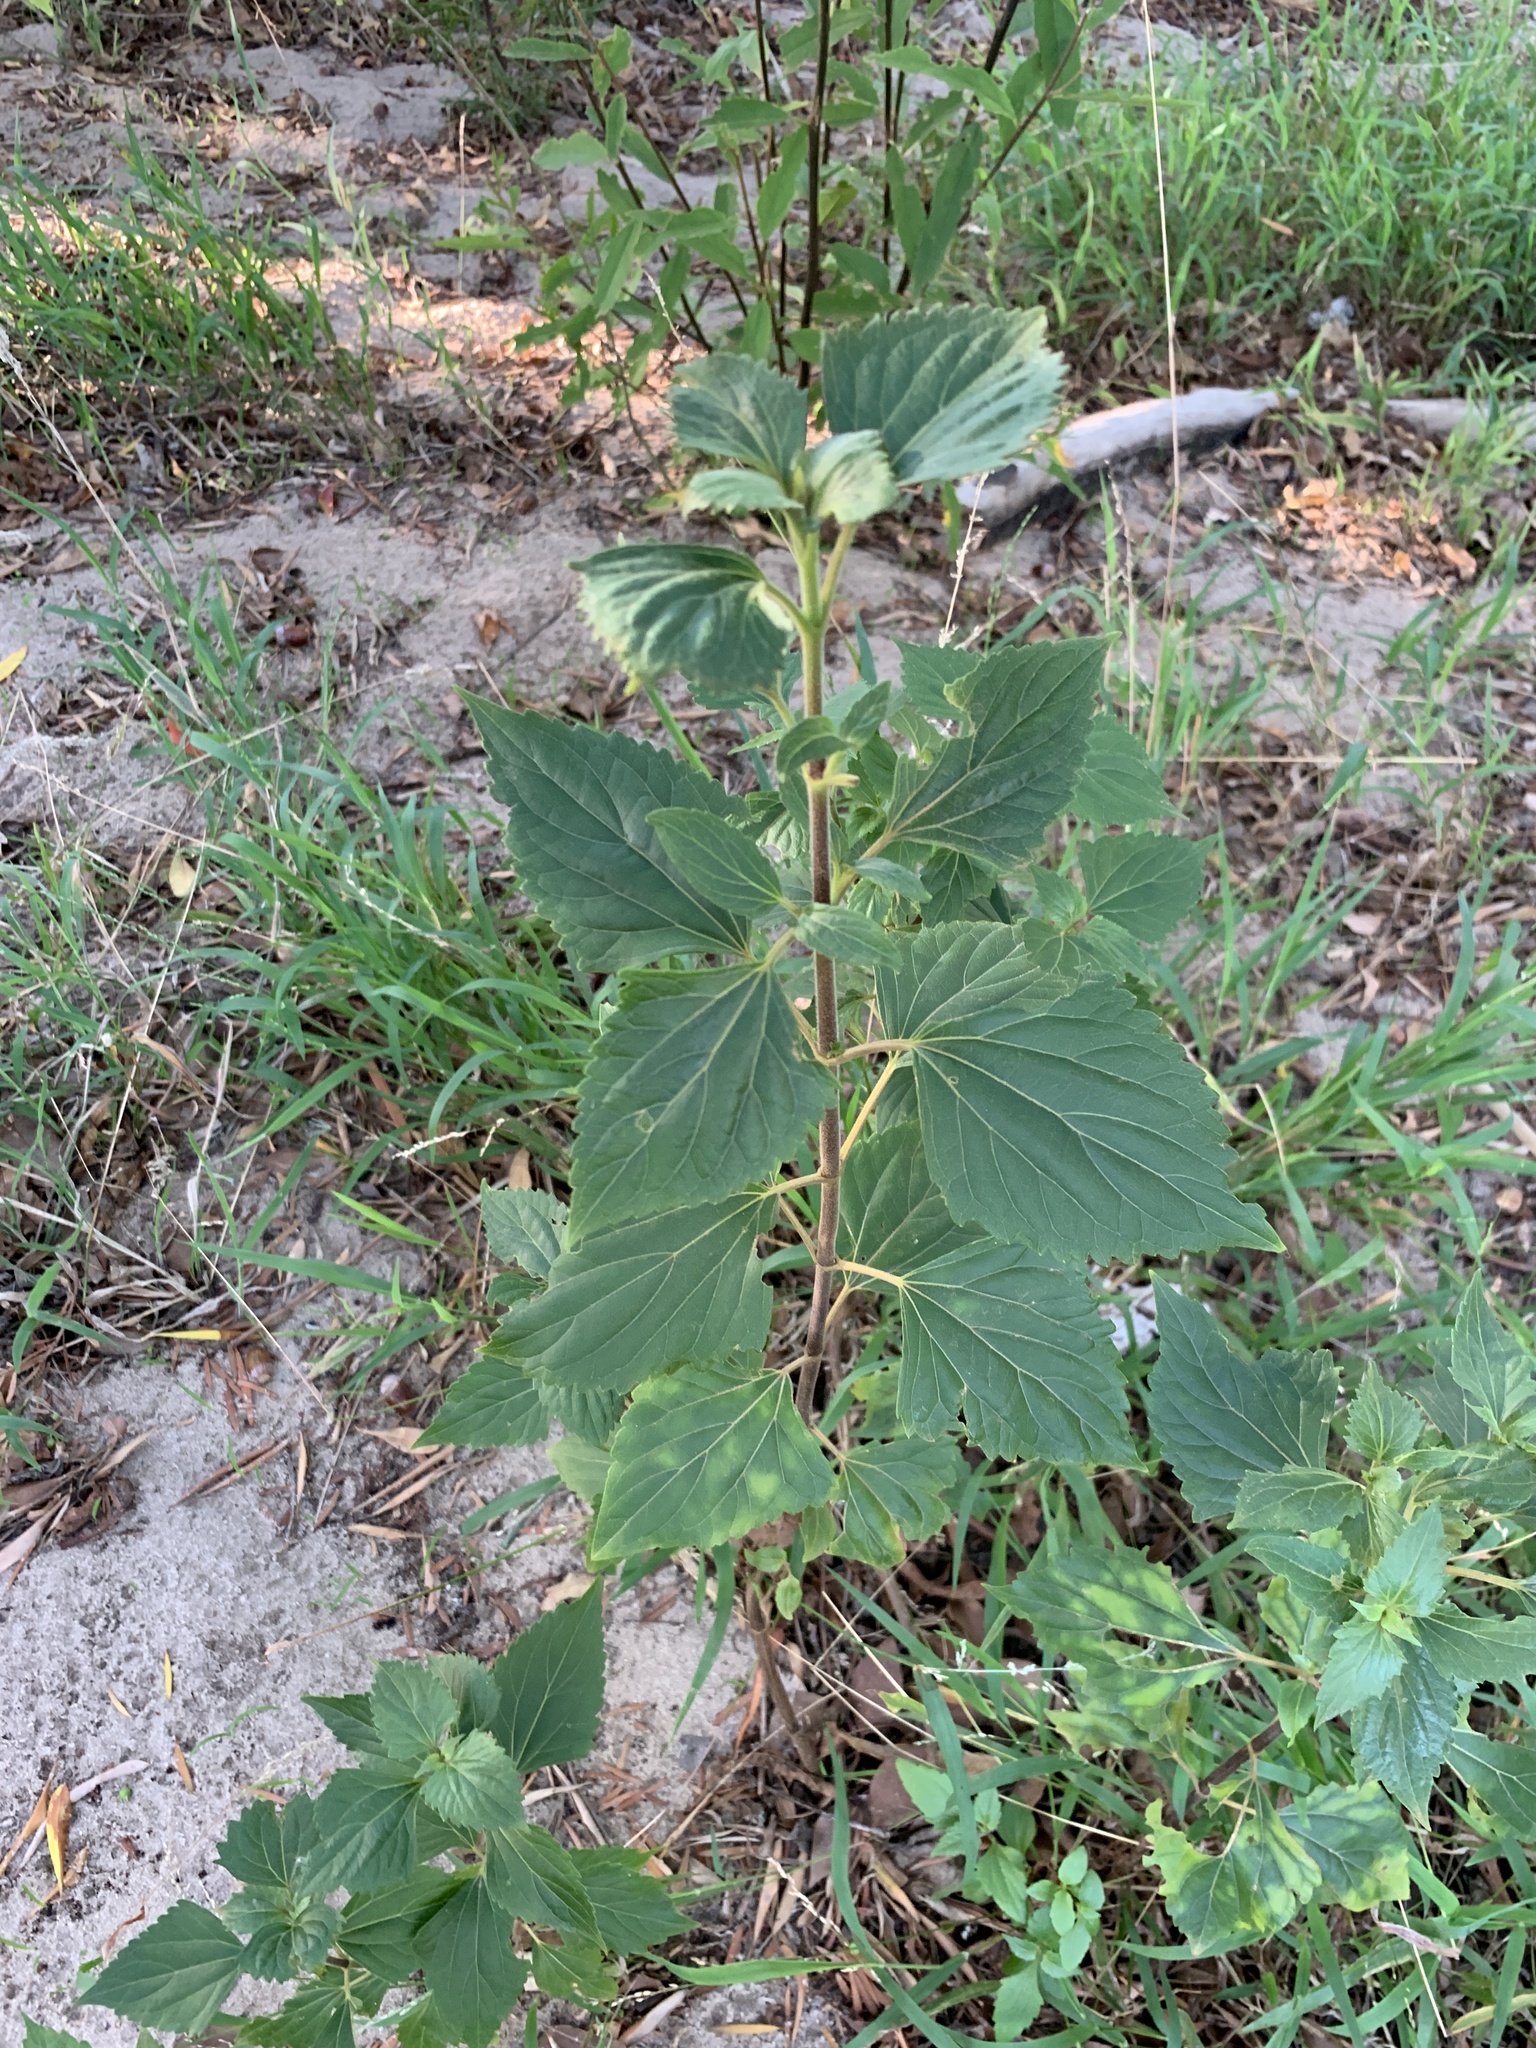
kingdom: Plantae
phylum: Tracheophyta
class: Magnoliopsida
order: Asterales
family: Asteraceae
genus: Ageratina
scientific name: Ageratina adenophora
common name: Sticky snakeroot
